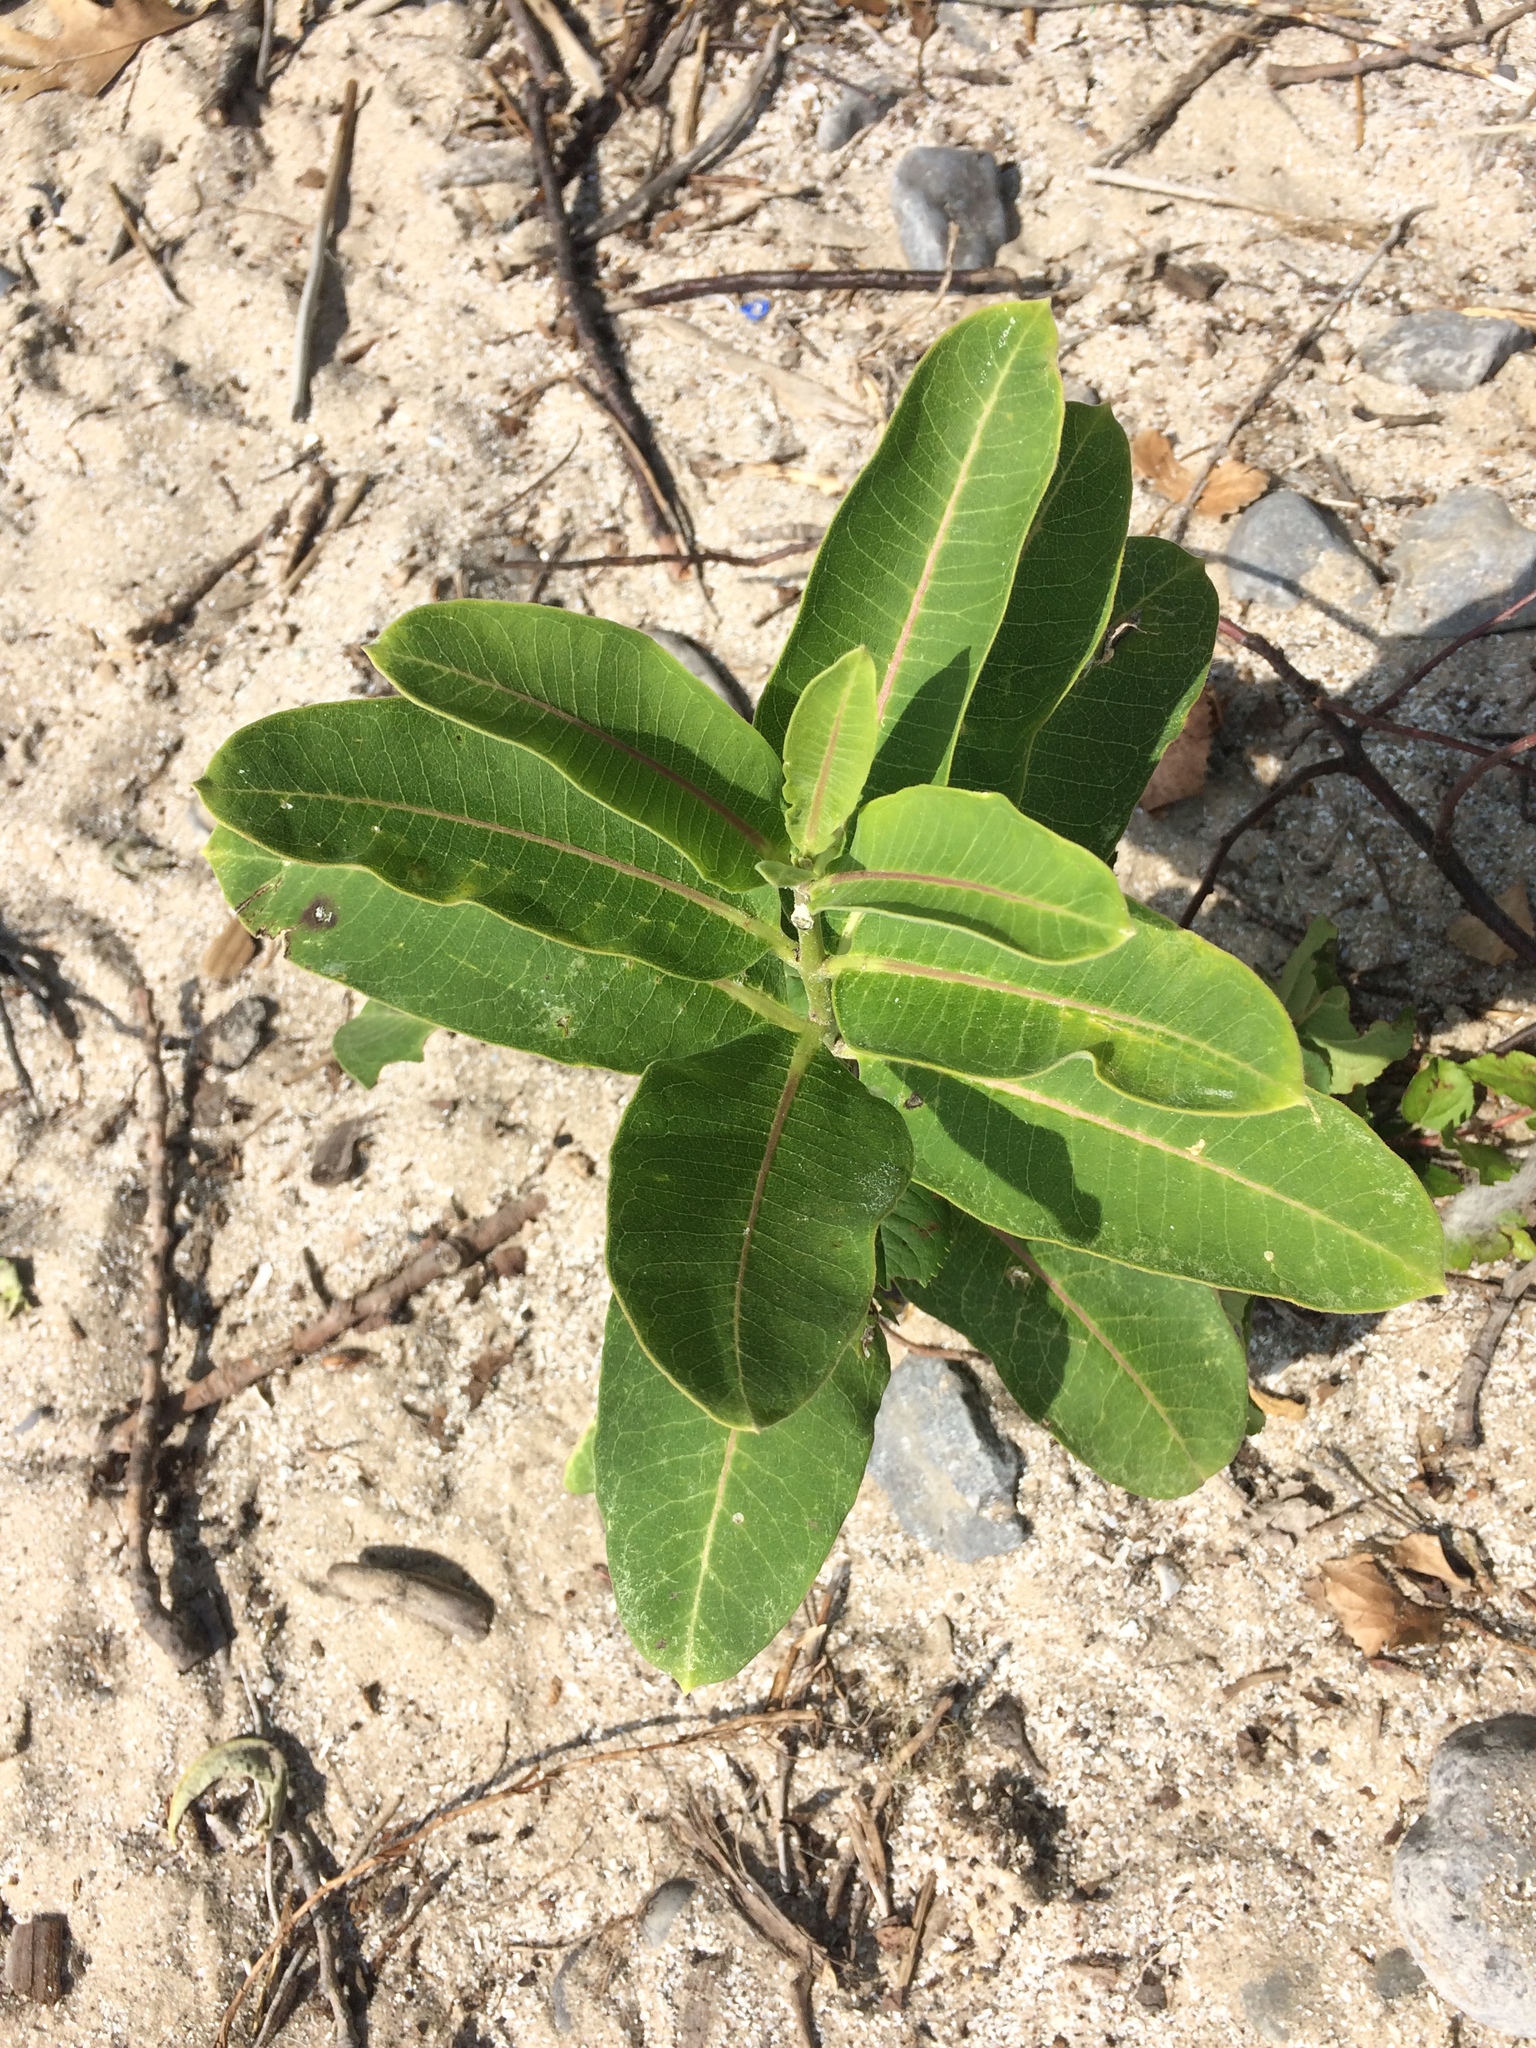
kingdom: Plantae
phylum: Tracheophyta
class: Magnoliopsida
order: Gentianales
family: Apocynaceae
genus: Asclepias
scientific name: Asclepias syriaca
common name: Common milkweed
